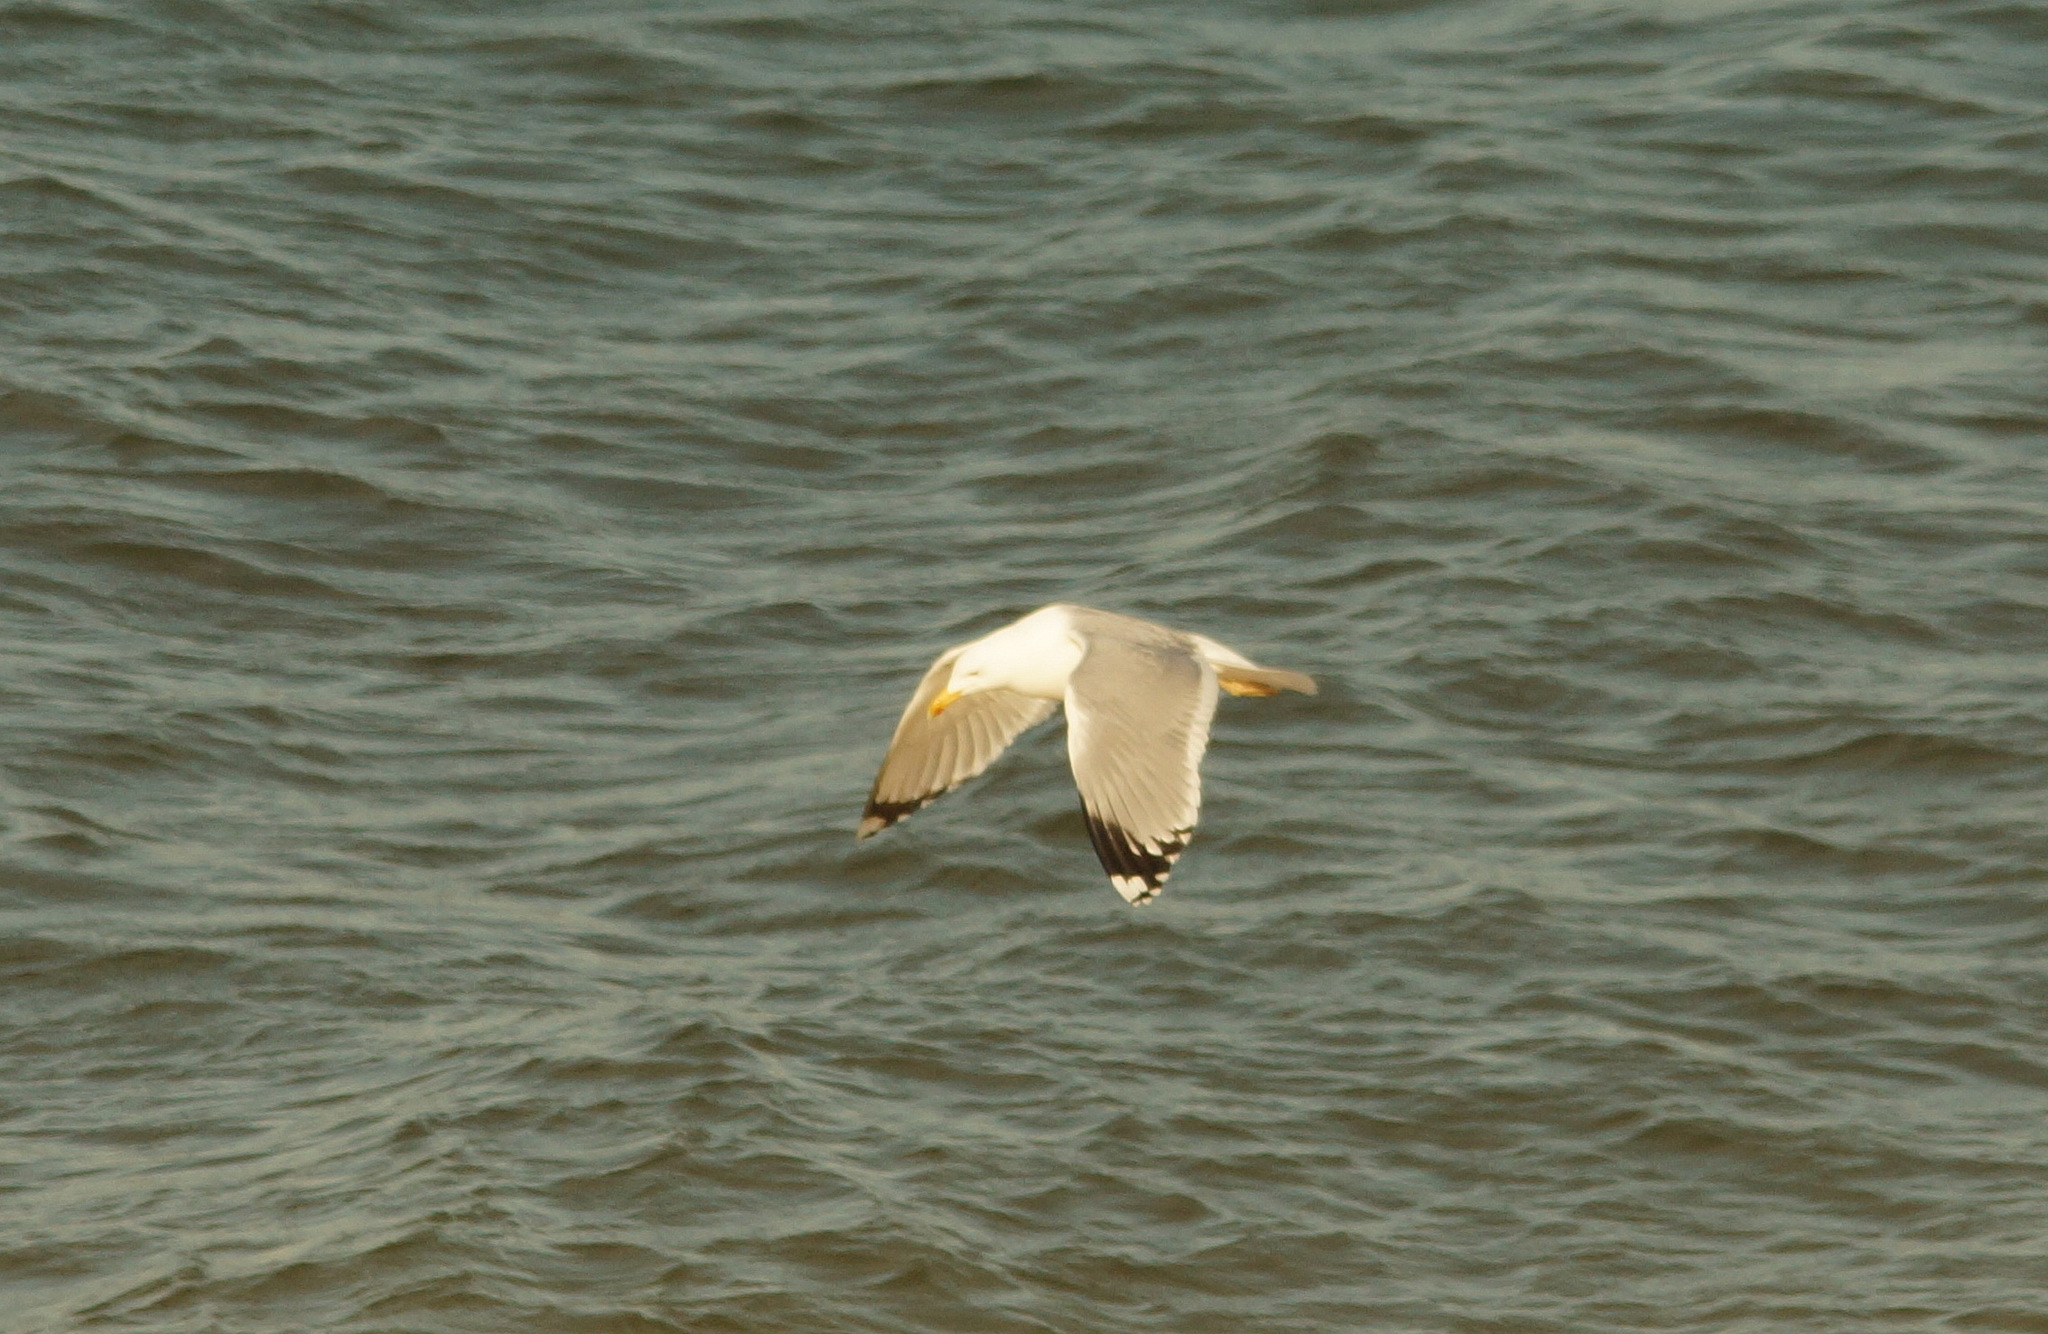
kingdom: Animalia
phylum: Chordata
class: Aves
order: Charadriiformes
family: Laridae
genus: Larus
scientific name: Larus michahellis
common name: Yellow-legged gull
